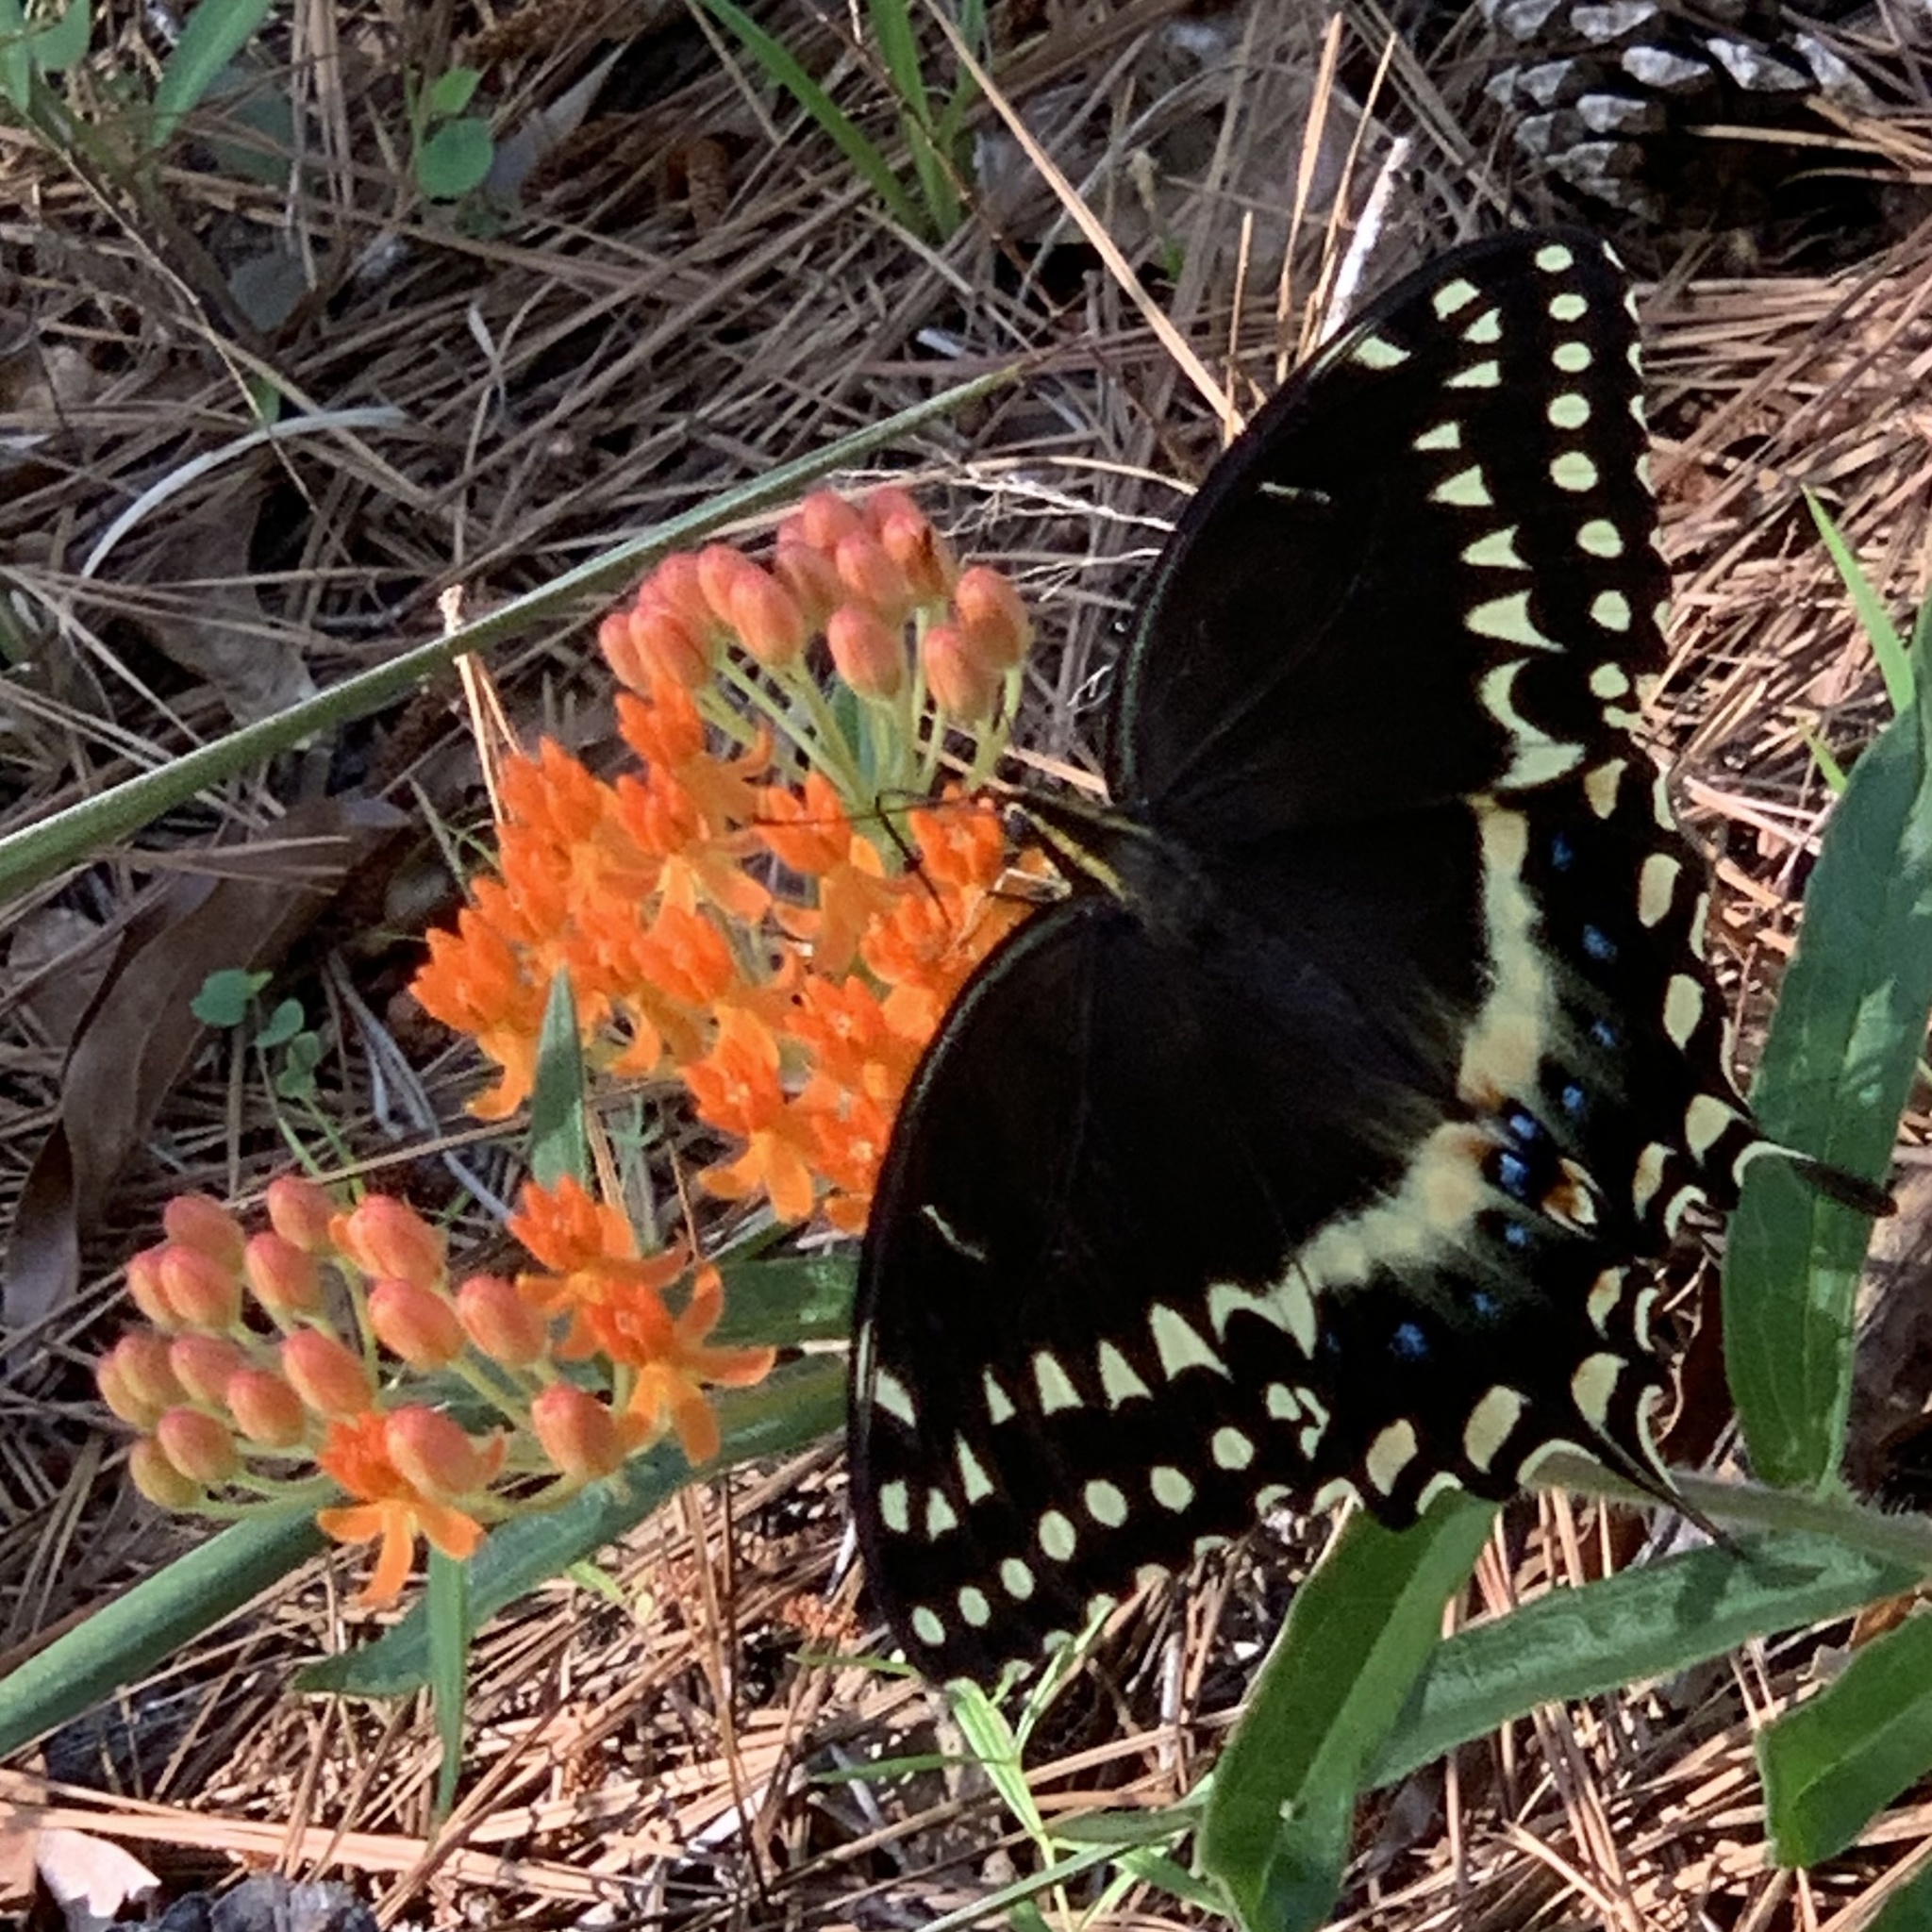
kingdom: Animalia
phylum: Arthropoda
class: Insecta
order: Lepidoptera
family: Papilionidae
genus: Papilio
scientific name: Papilio palamedes
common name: Palamedes swallowtail
